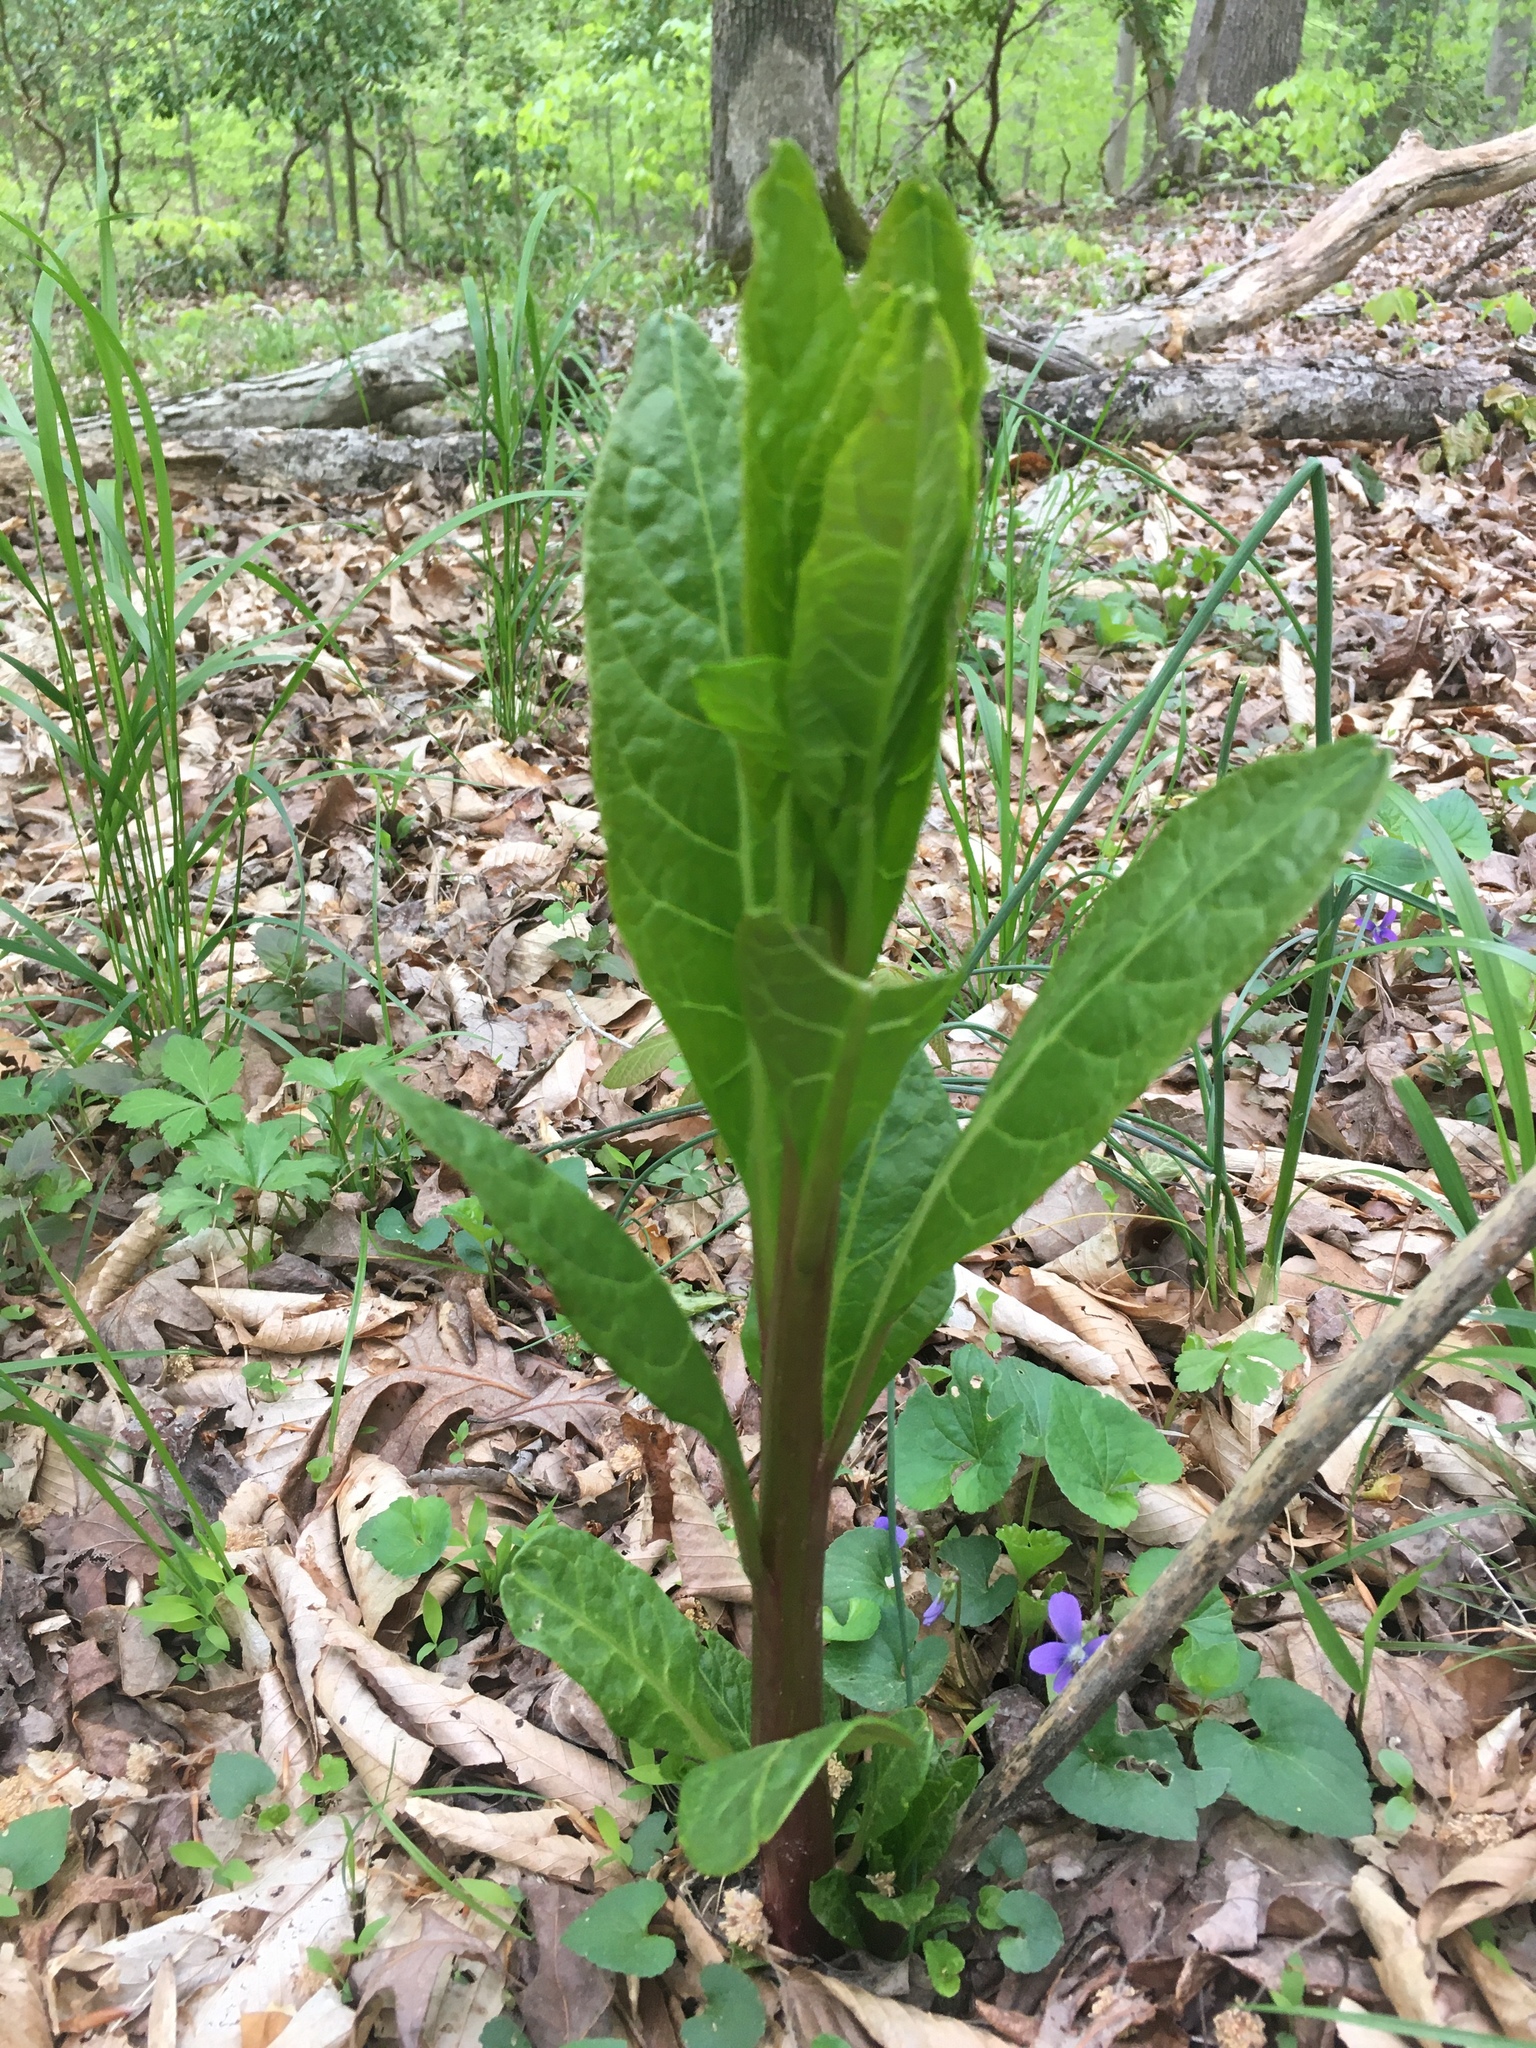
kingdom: Plantae
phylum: Tracheophyta
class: Magnoliopsida
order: Caryophyllales
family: Phytolaccaceae
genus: Phytolacca
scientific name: Phytolacca americana
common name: American pokeweed
